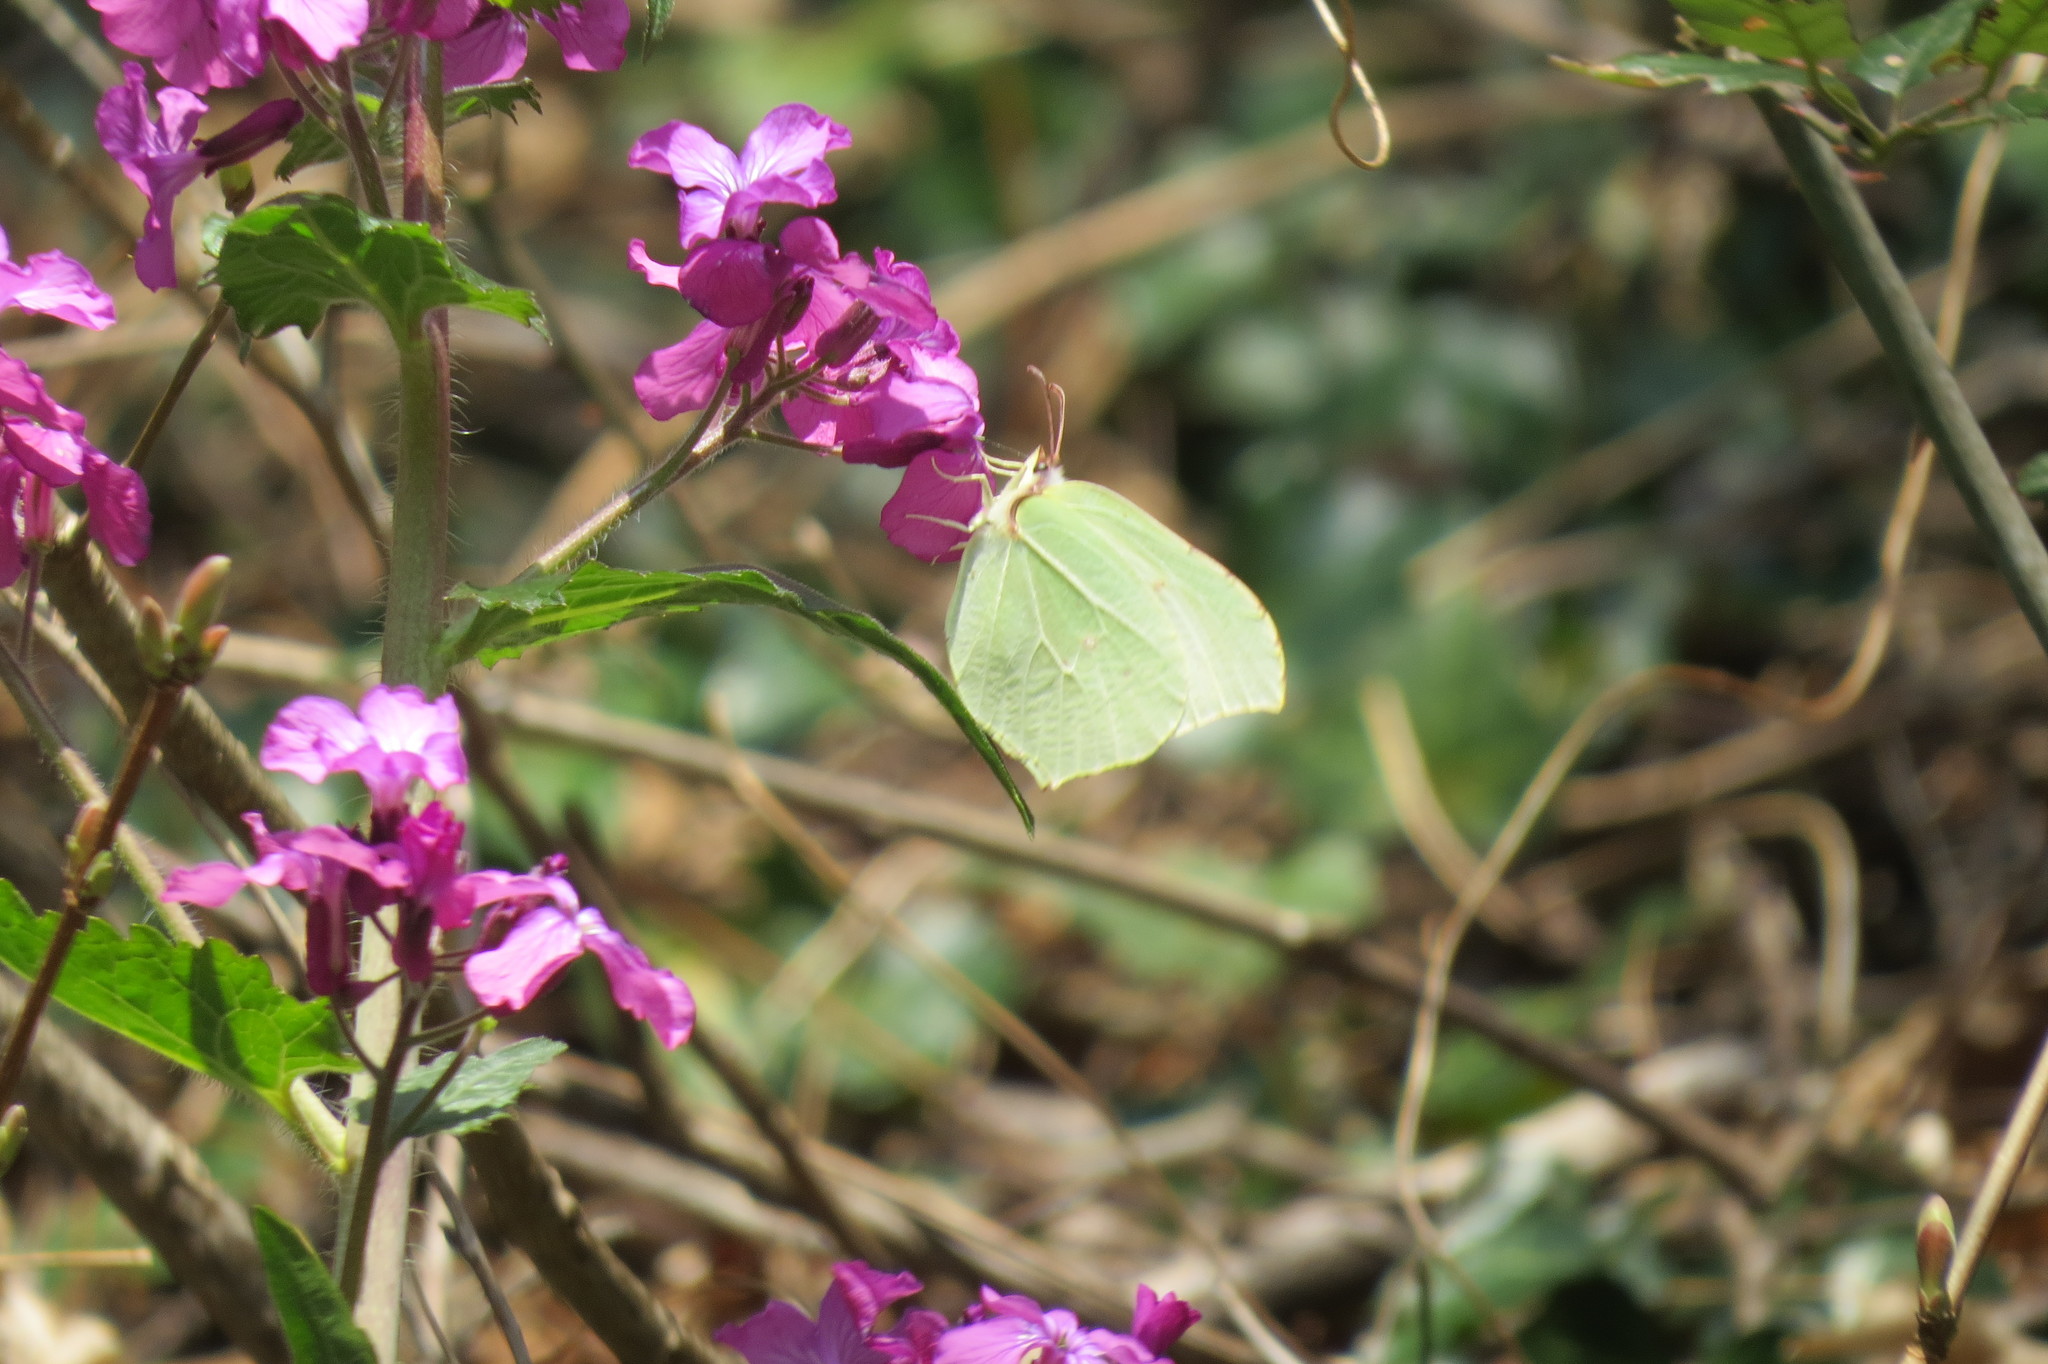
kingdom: Animalia
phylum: Arthropoda
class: Insecta
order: Lepidoptera
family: Pieridae
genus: Gonepteryx
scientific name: Gonepteryx rhamni
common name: Brimstone
